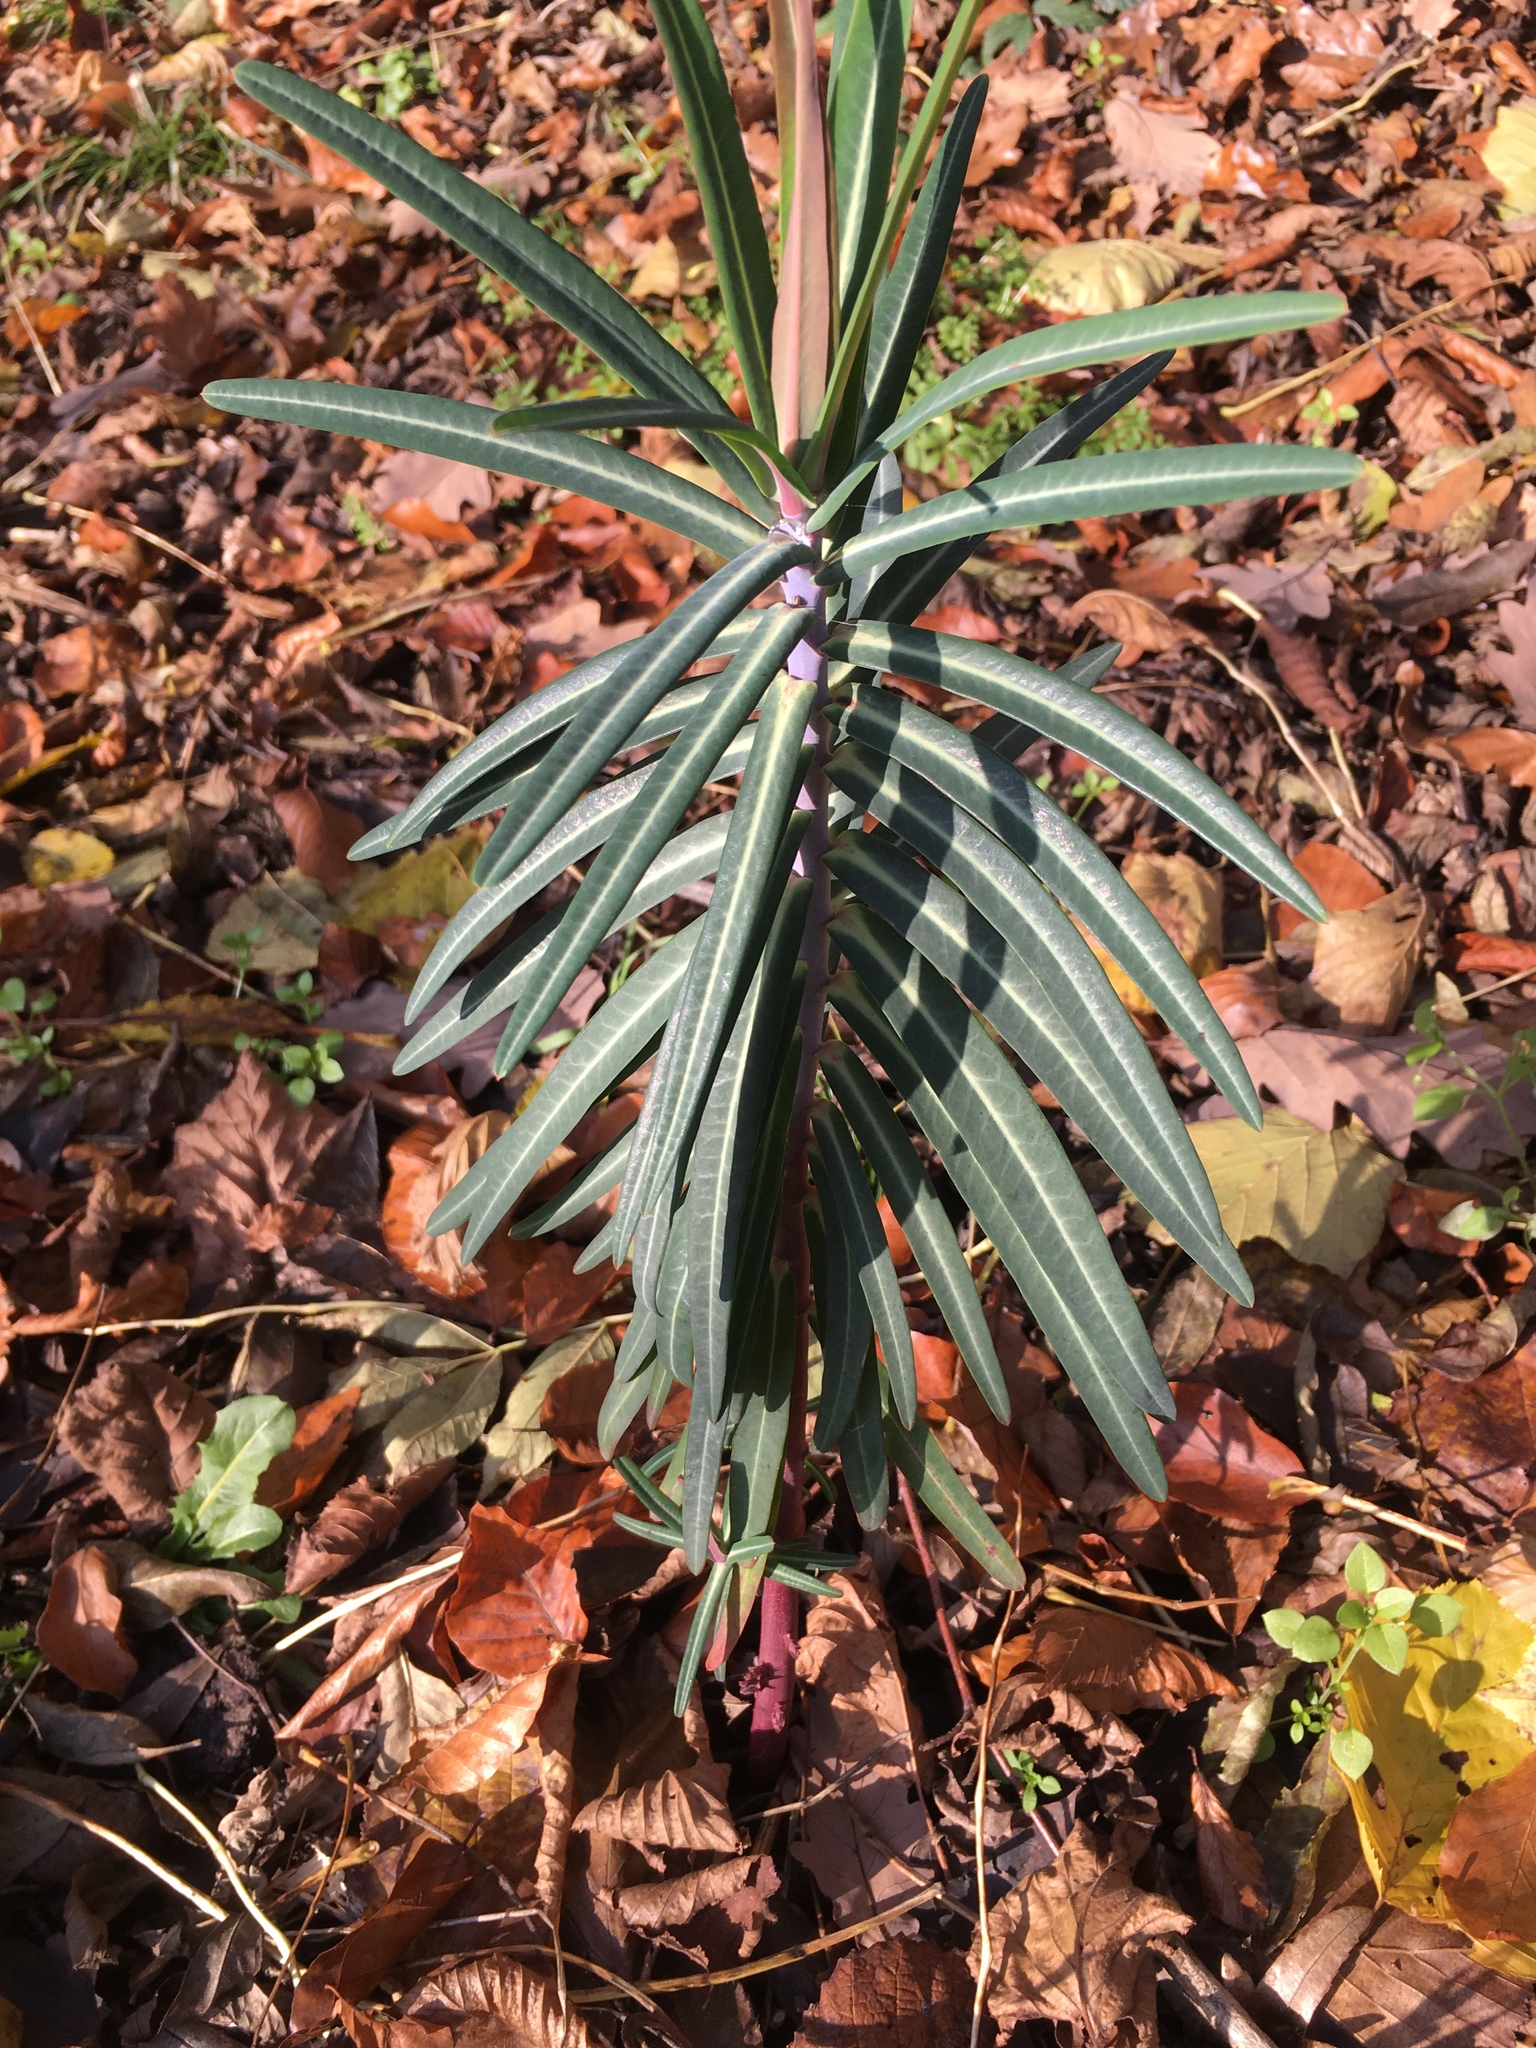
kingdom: Plantae
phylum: Tracheophyta
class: Magnoliopsida
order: Malpighiales
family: Euphorbiaceae
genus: Euphorbia
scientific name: Euphorbia lathyris
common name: Caper spurge
